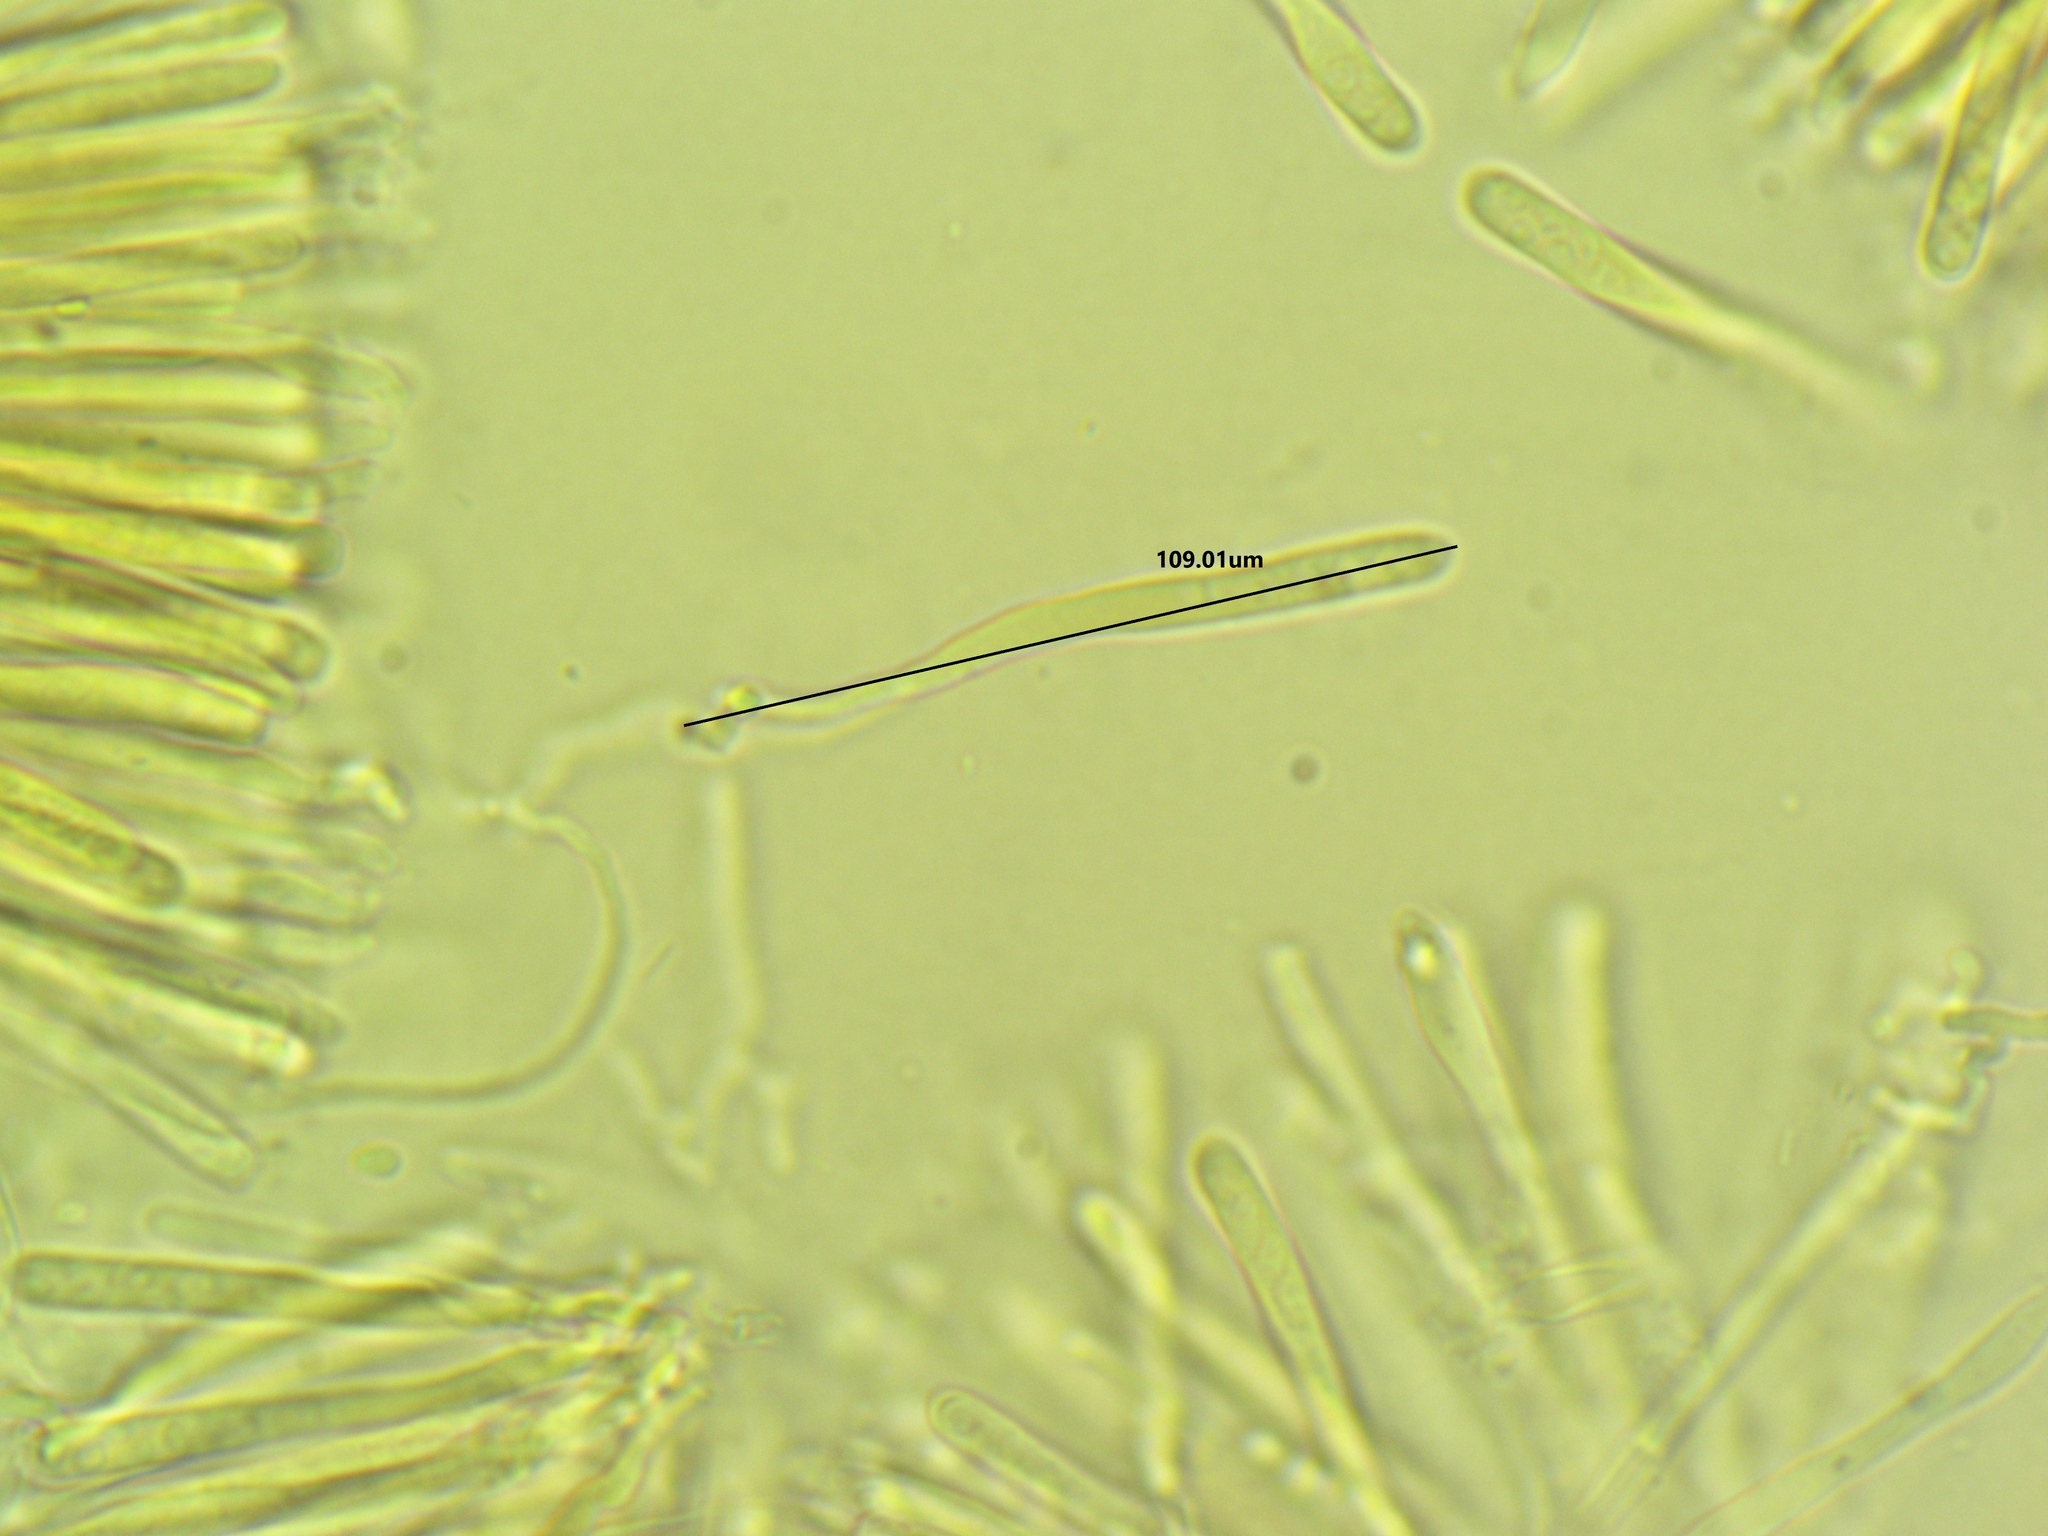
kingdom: Fungi
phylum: Ascomycota
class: Orbiliomycetes
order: Orbiliales
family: Orbiliaceae
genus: Orbilia
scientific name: Orbilia xanthostigma
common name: Common glasscup
